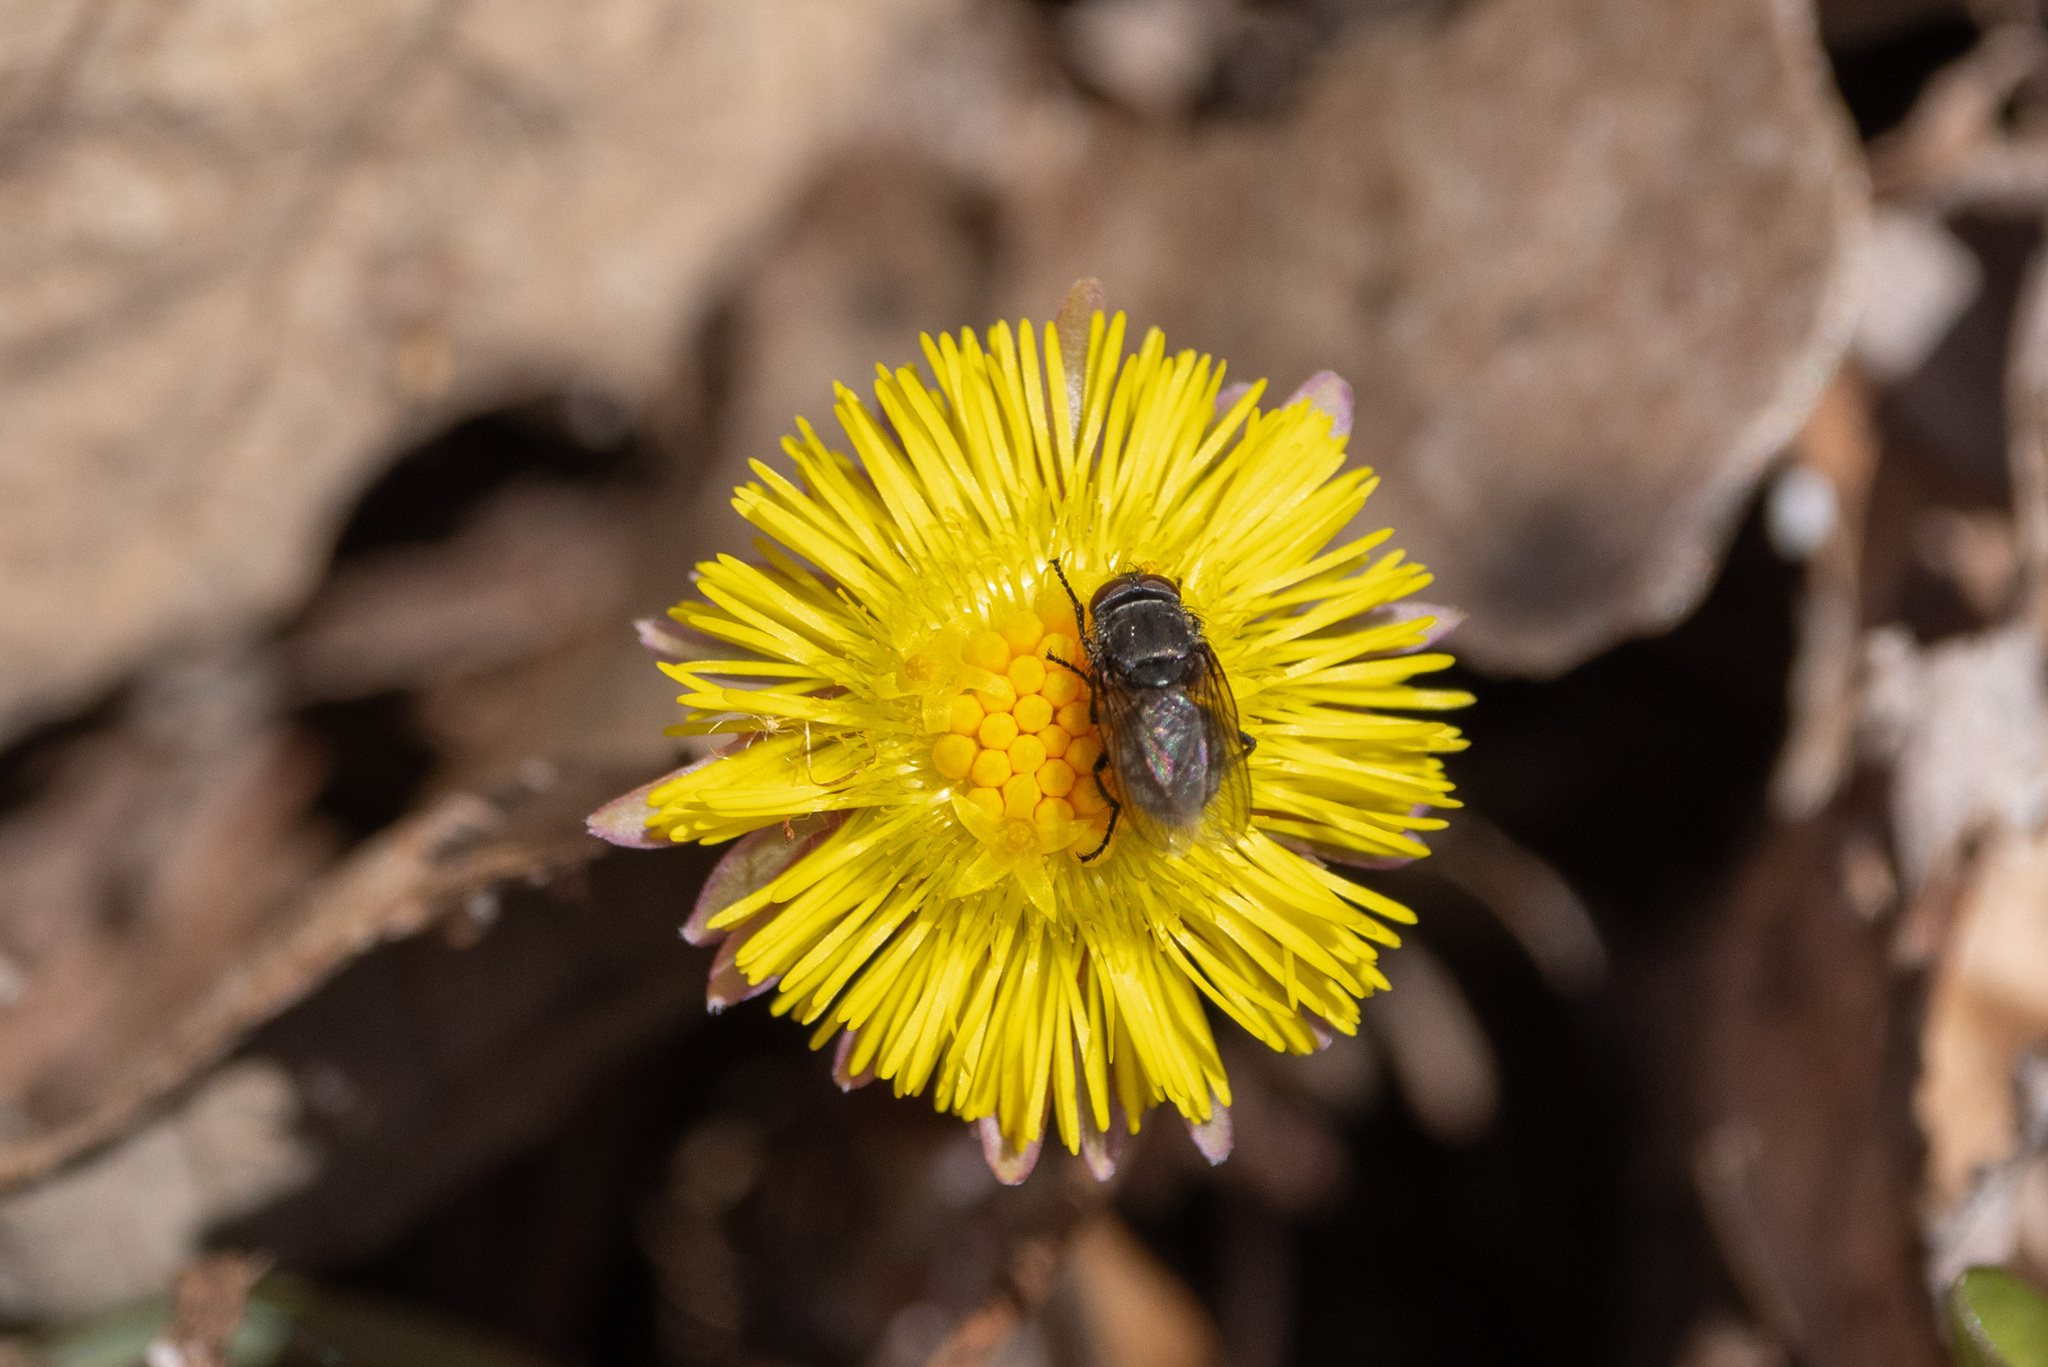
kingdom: Plantae
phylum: Tracheophyta
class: Magnoliopsida
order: Asterales
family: Asteraceae
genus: Tussilago
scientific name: Tussilago farfara
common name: Coltsfoot
